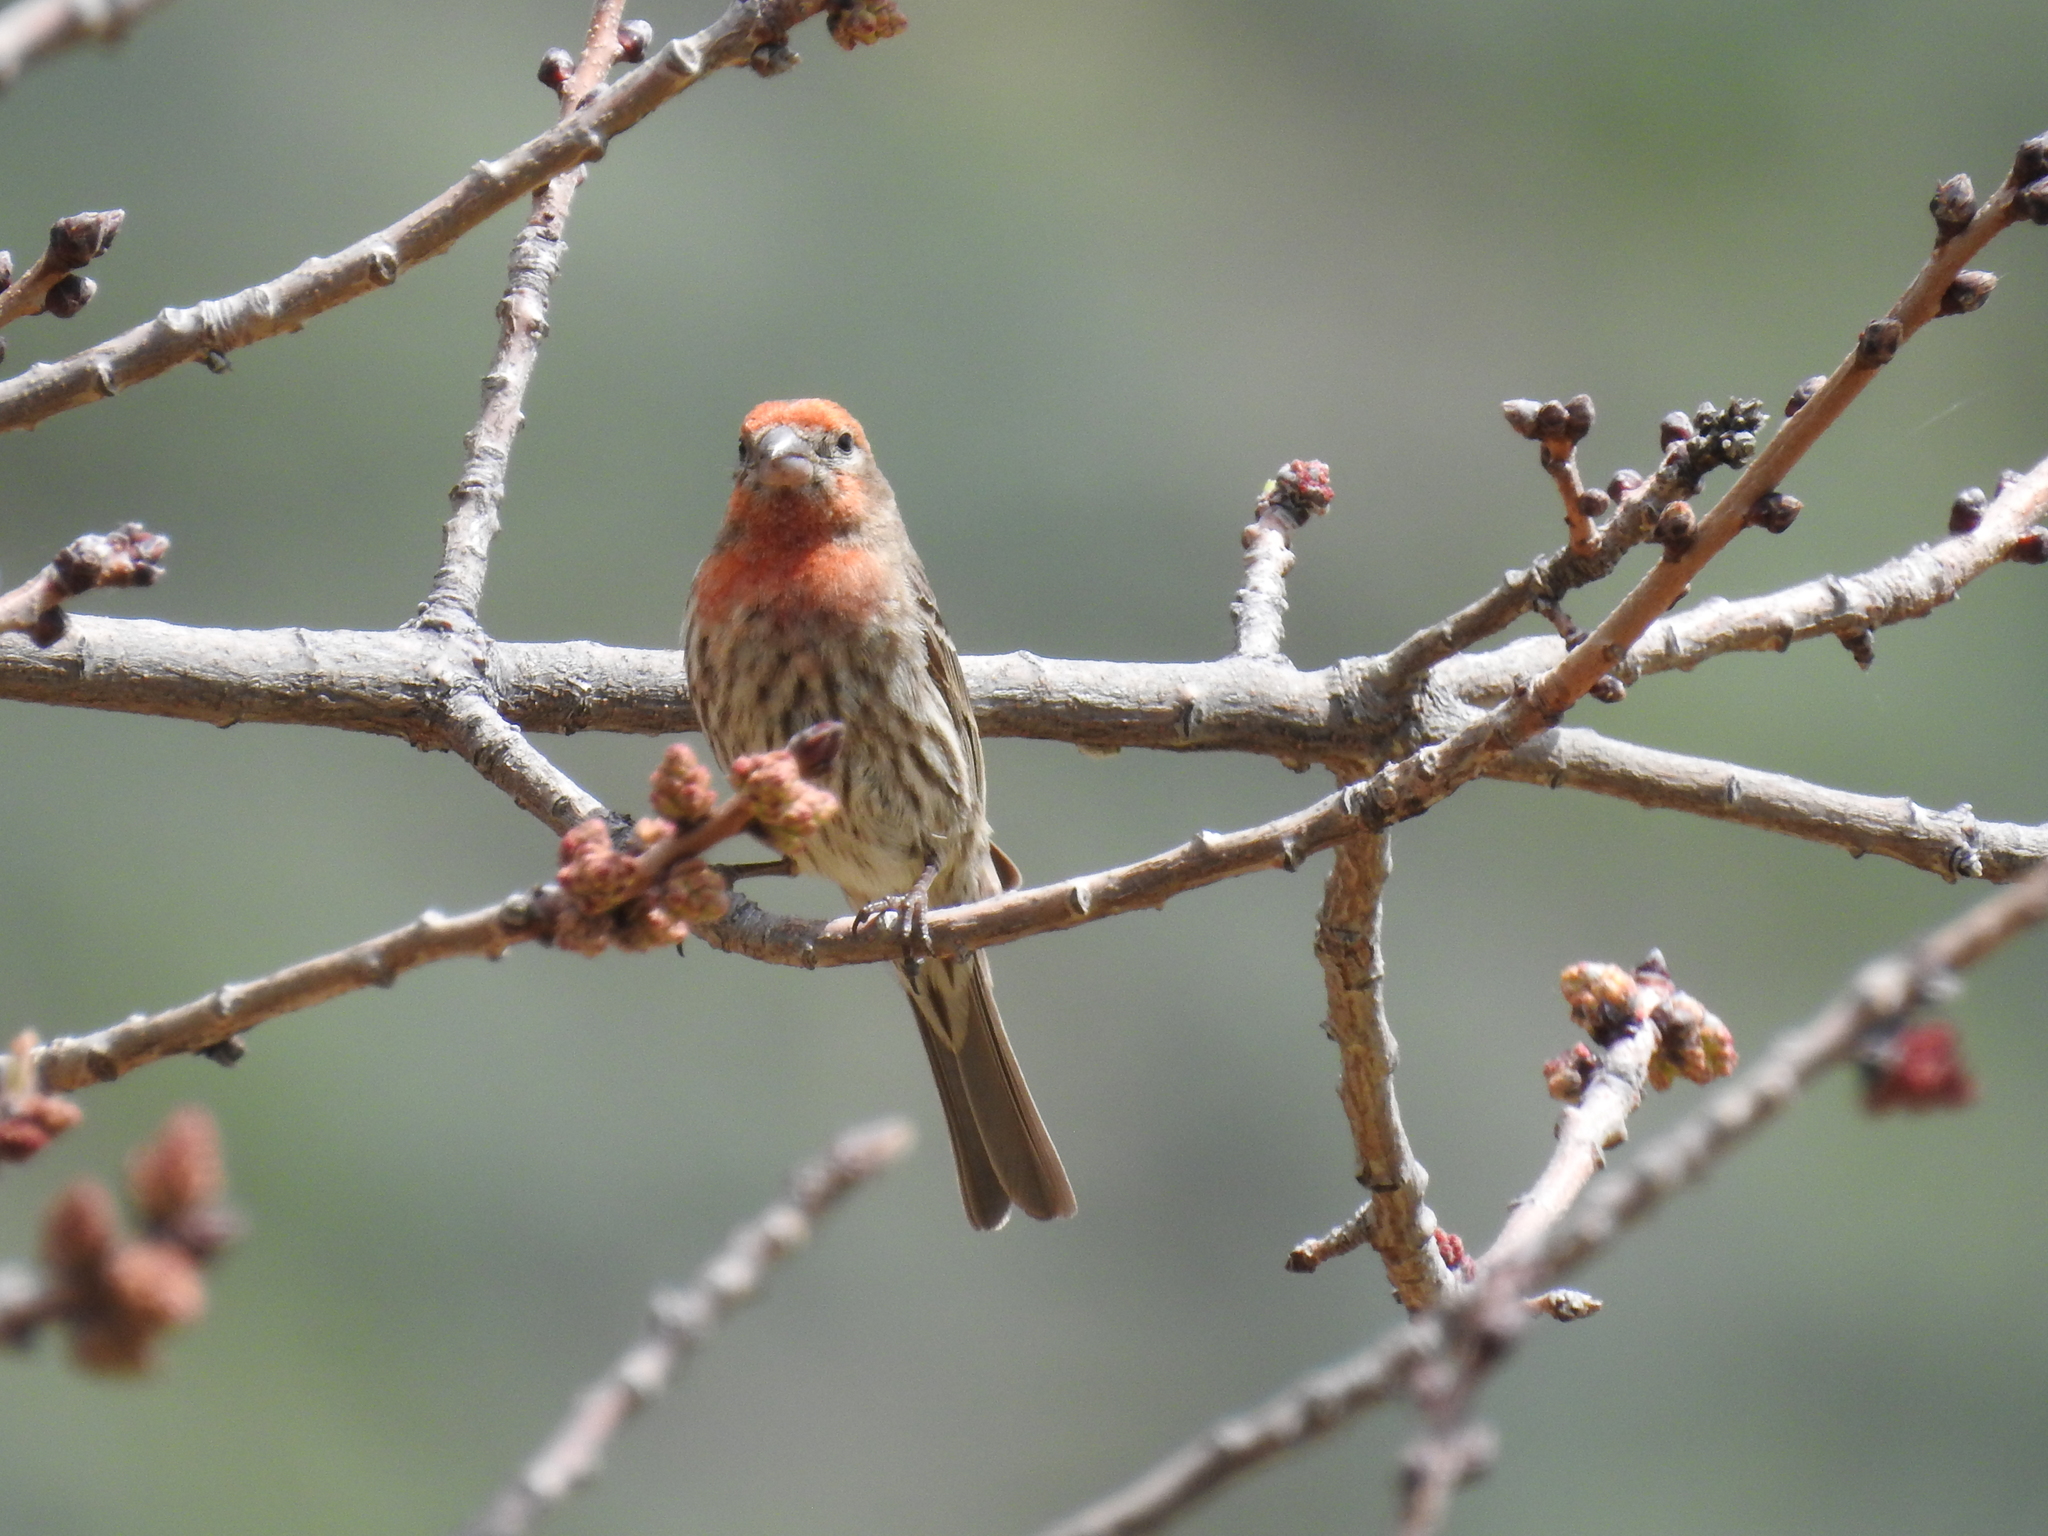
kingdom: Animalia
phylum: Chordata
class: Aves
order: Passeriformes
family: Fringillidae
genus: Haemorhous
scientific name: Haemorhous mexicanus
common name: House finch
